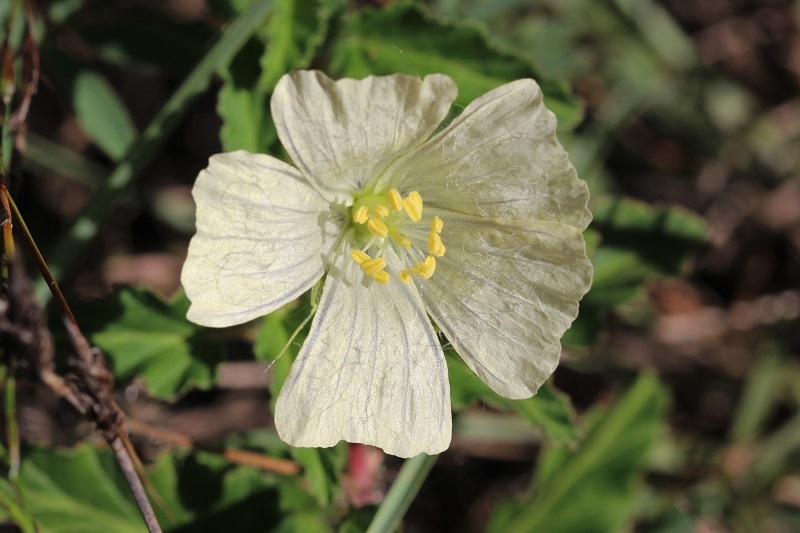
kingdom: Plantae
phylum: Tracheophyta
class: Magnoliopsida
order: Geraniales
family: Geraniaceae
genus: Monsonia
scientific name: Monsonia emarginata
